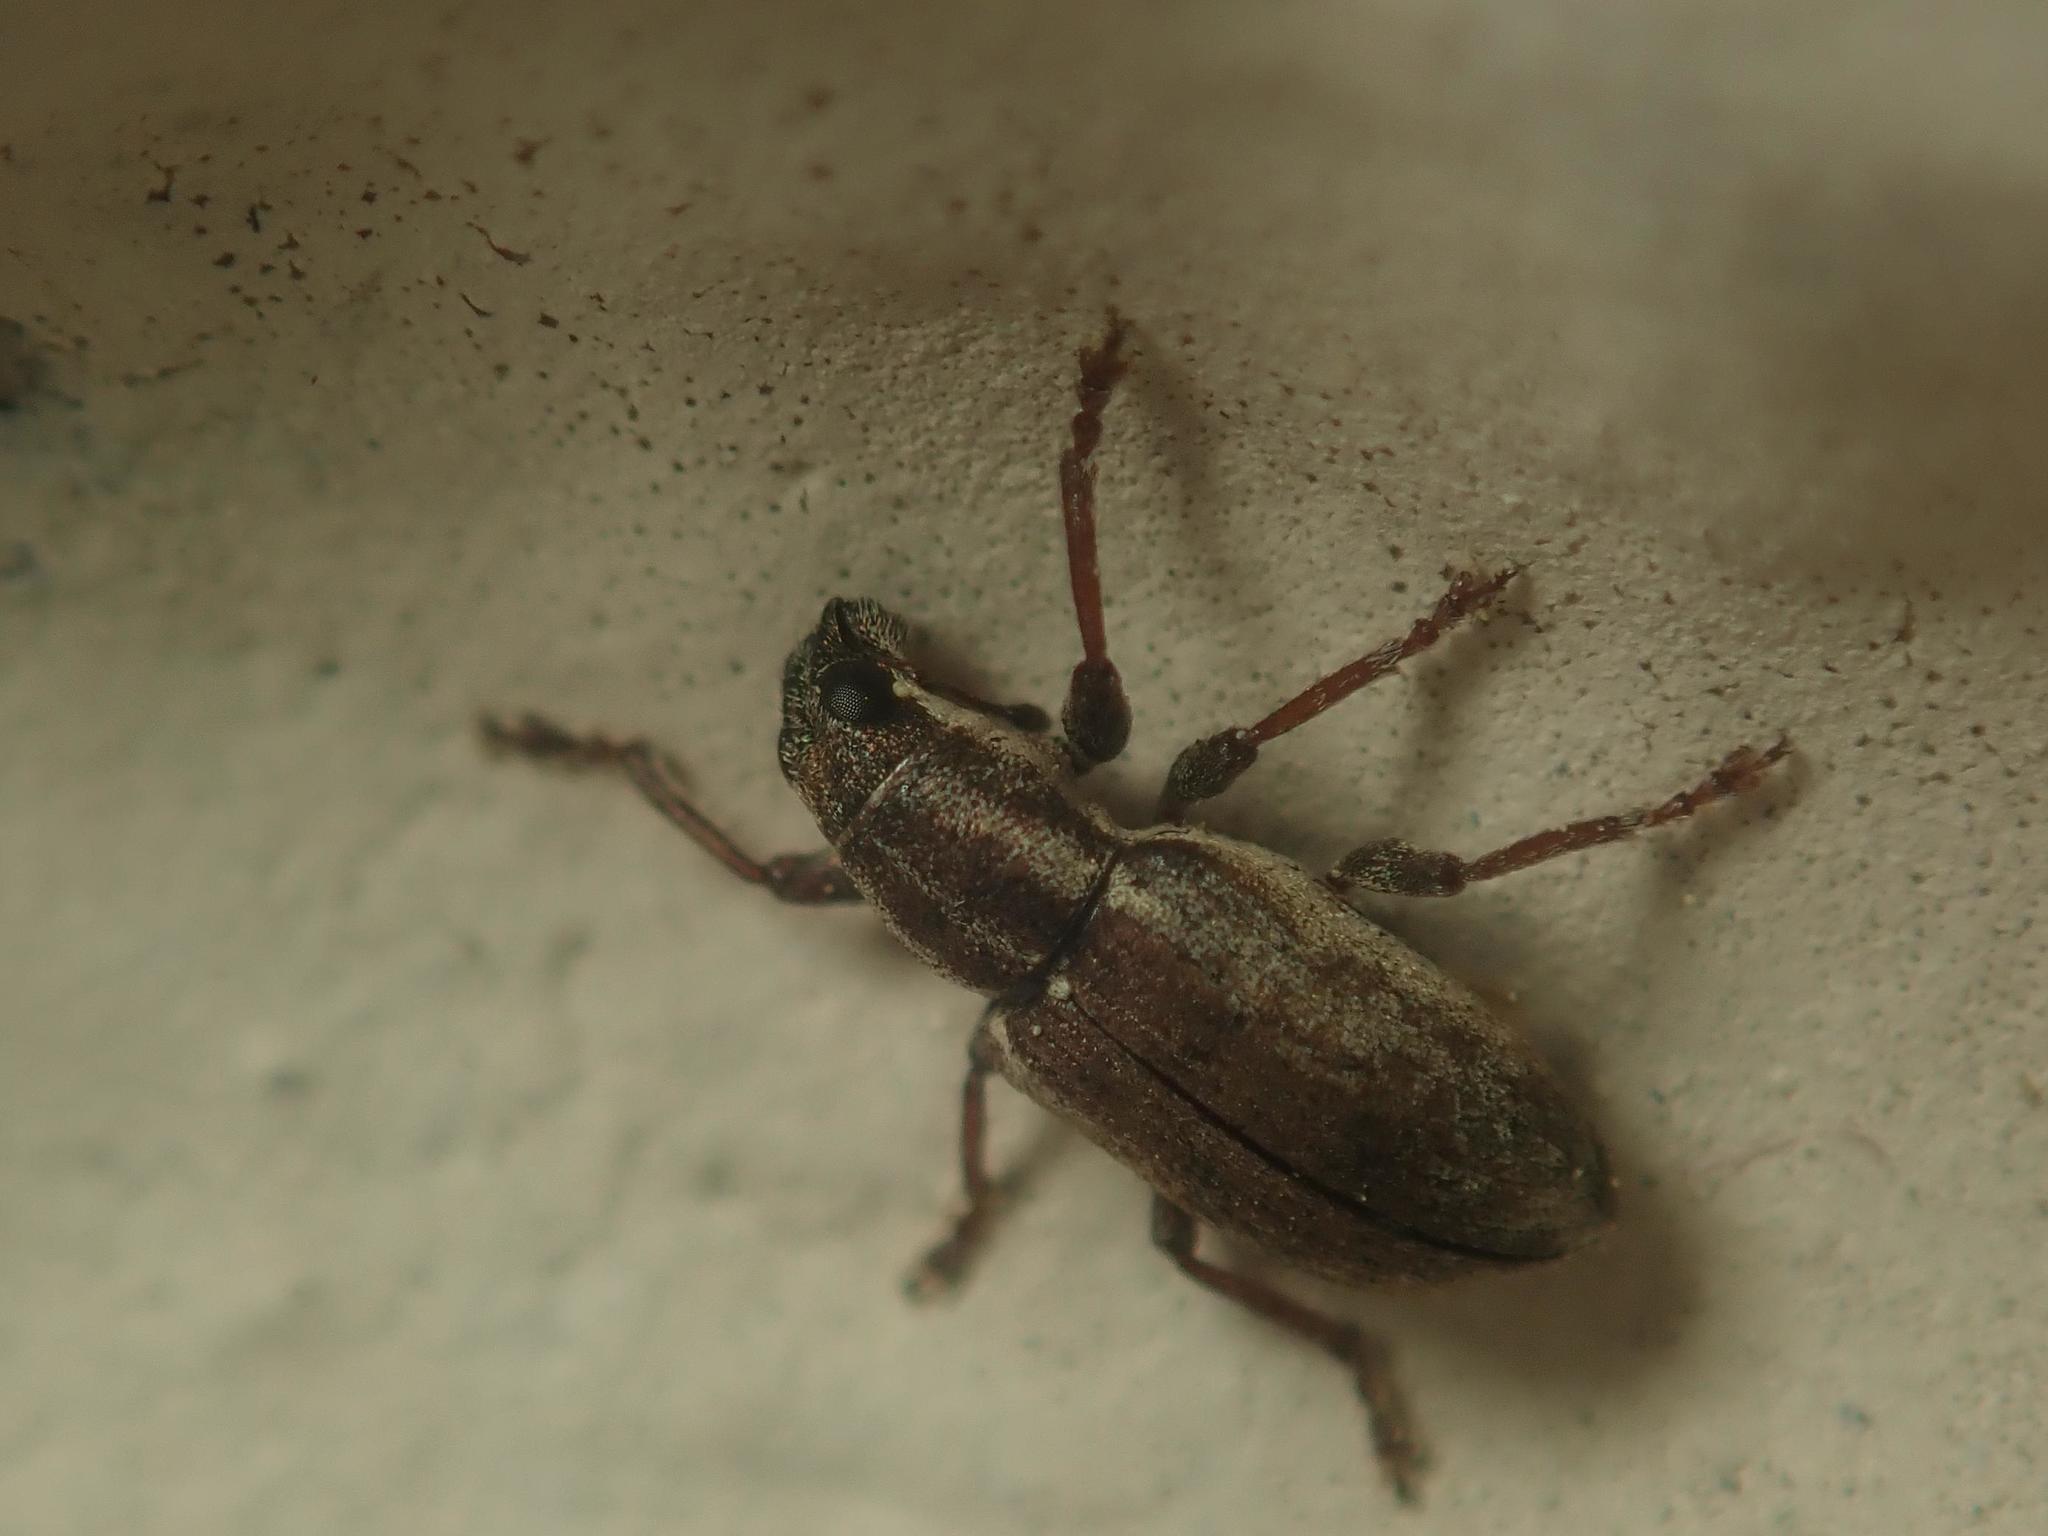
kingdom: Animalia
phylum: Arthropoda
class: Insecta
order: Coleoptera
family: Curculionidae
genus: Sitona
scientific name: Sitona lineatus
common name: Weevil
